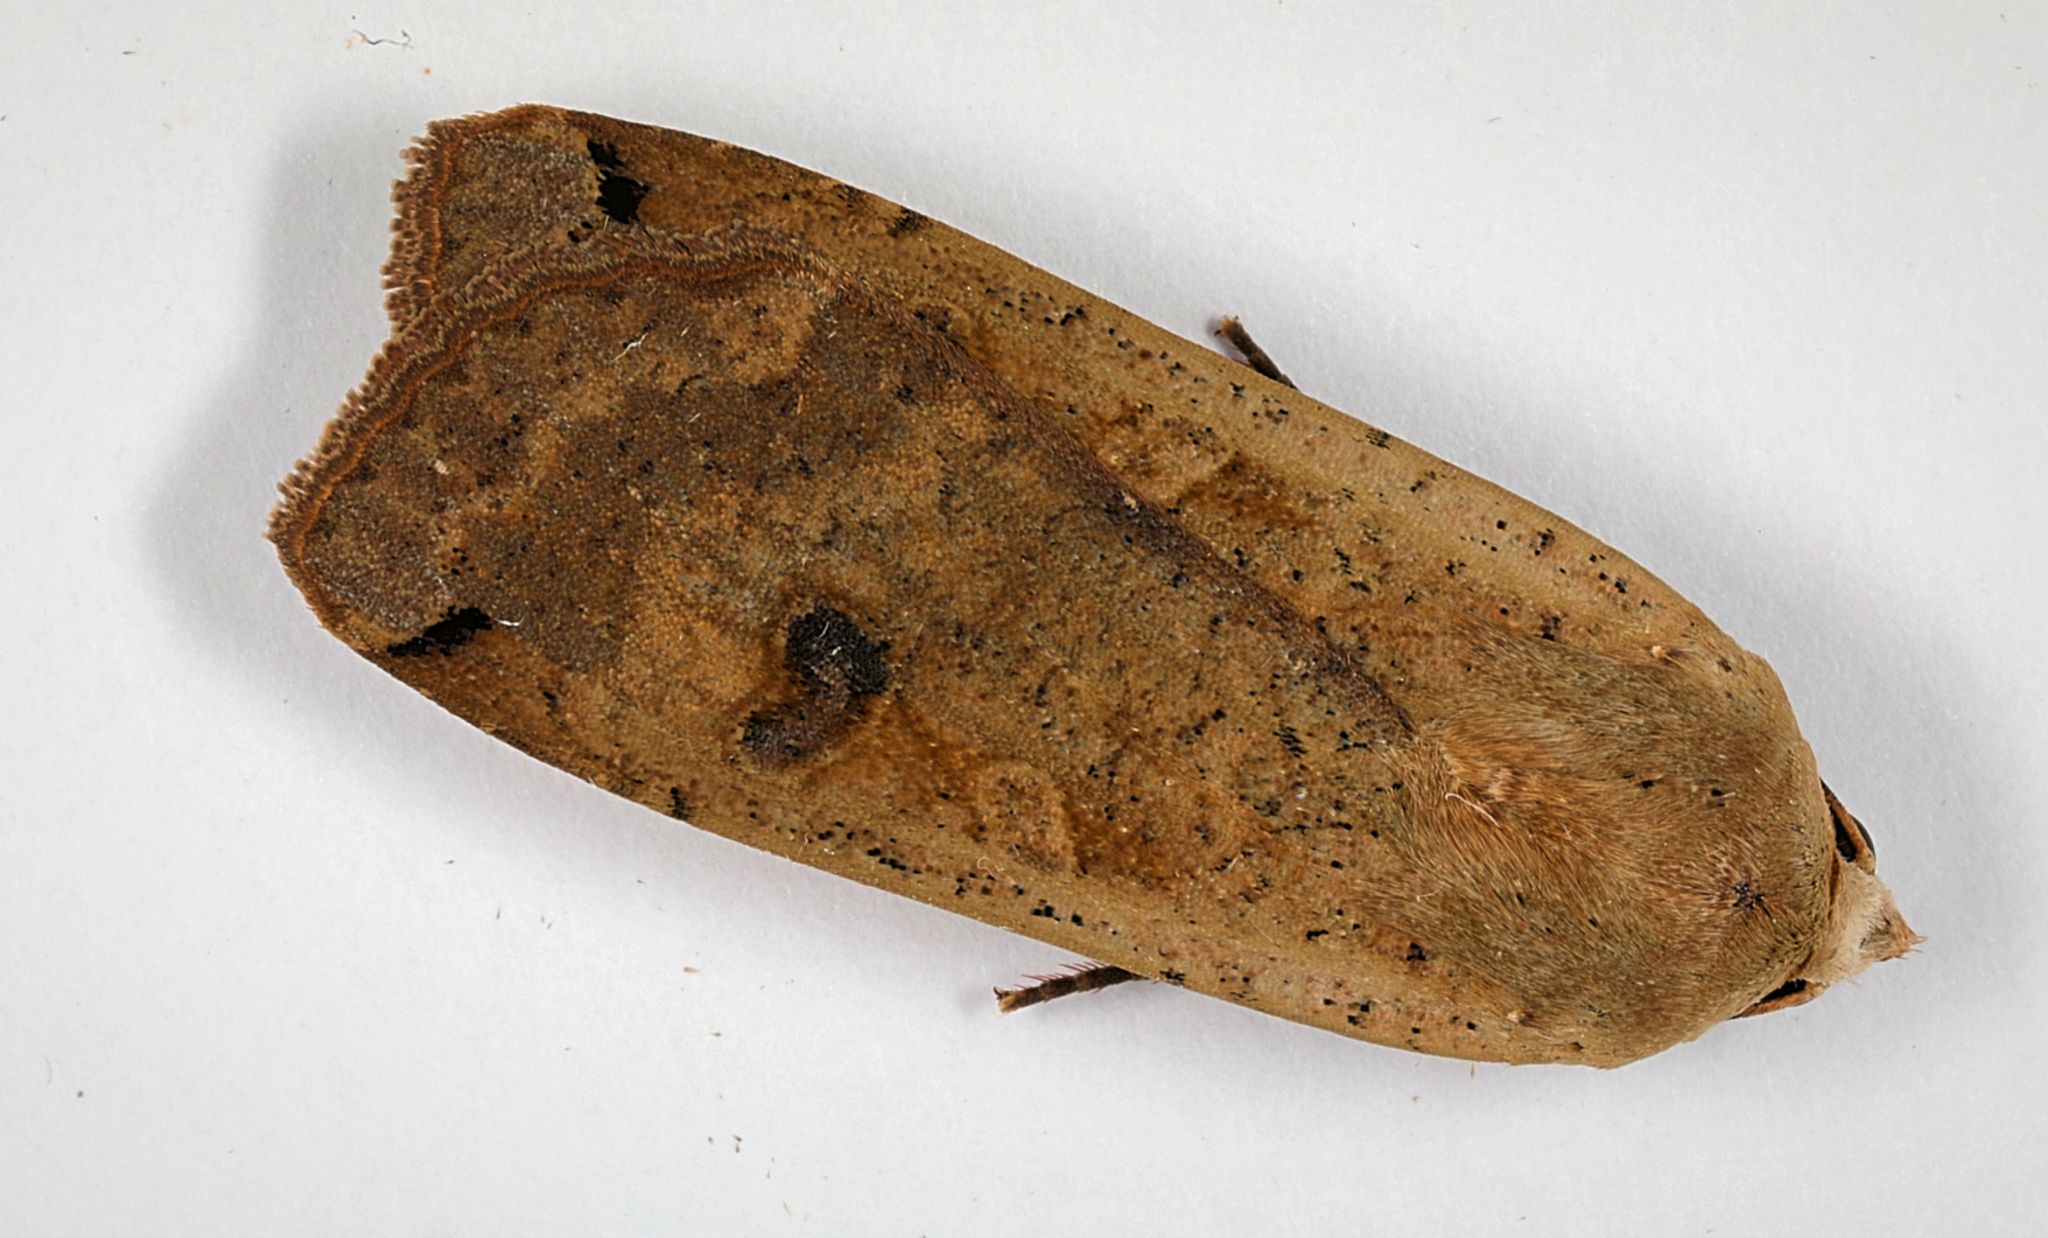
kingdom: Animalia
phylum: Arthropoda
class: Insecta
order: Lepidoptera
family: Noctuidae
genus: Noctua
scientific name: Noctua pronuba
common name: Large yellow underwing
